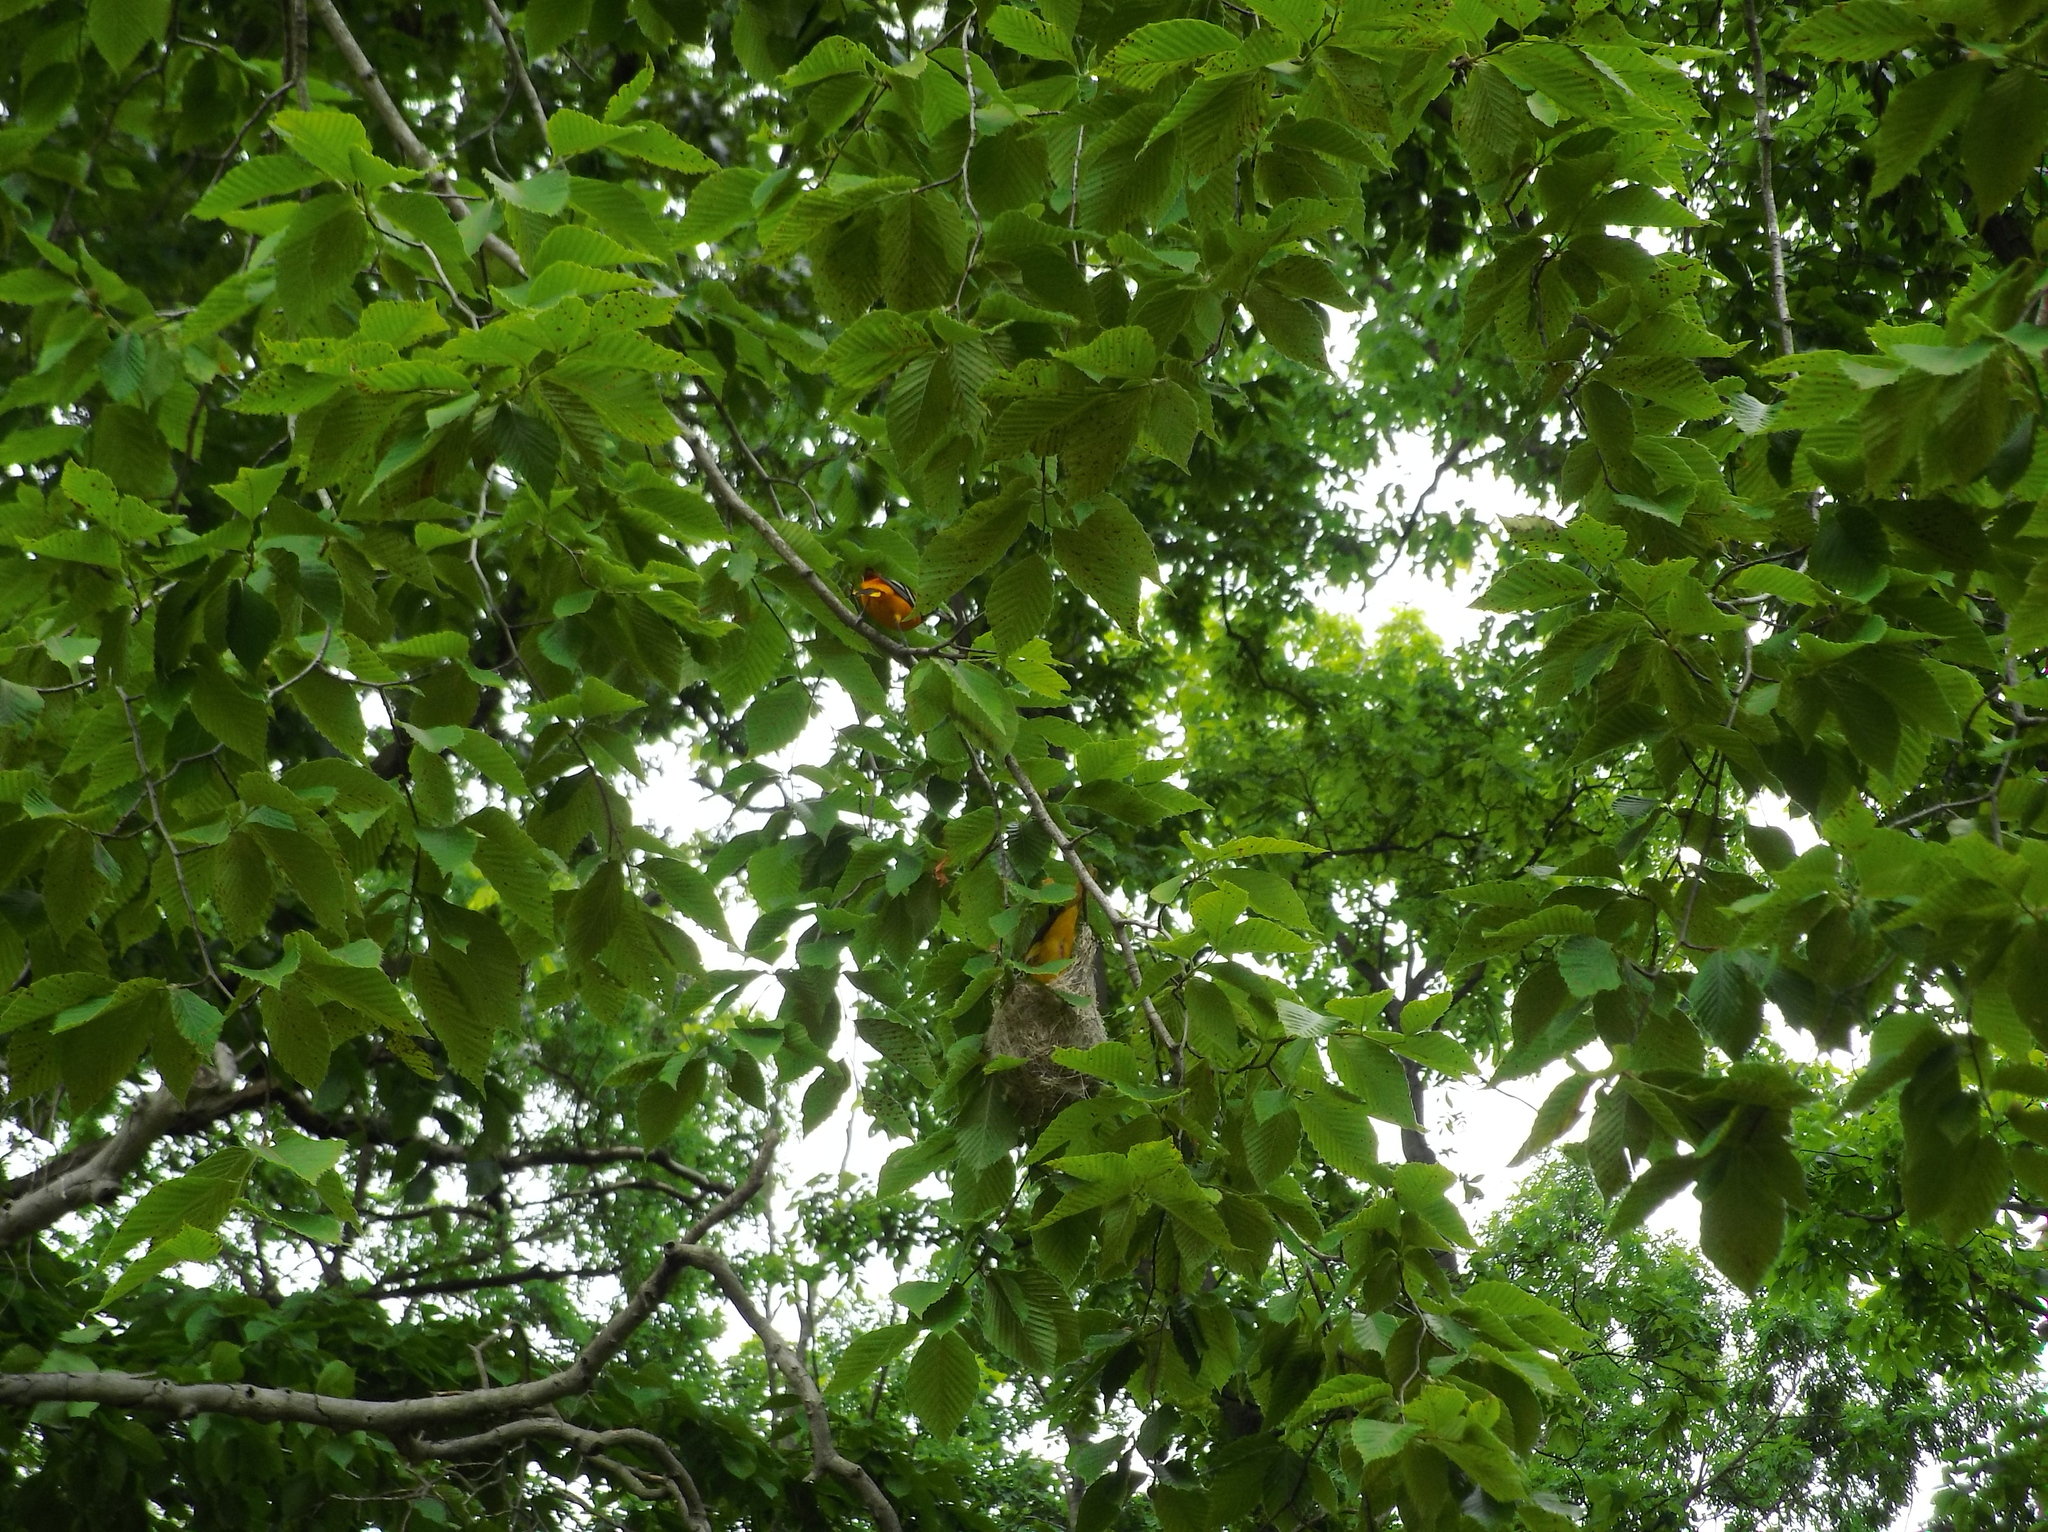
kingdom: Animalia
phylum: Chordata
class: Aves
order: Passeriformes
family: Icteridae
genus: Icterus
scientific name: Icterus galbula
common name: Baltimore oriole
